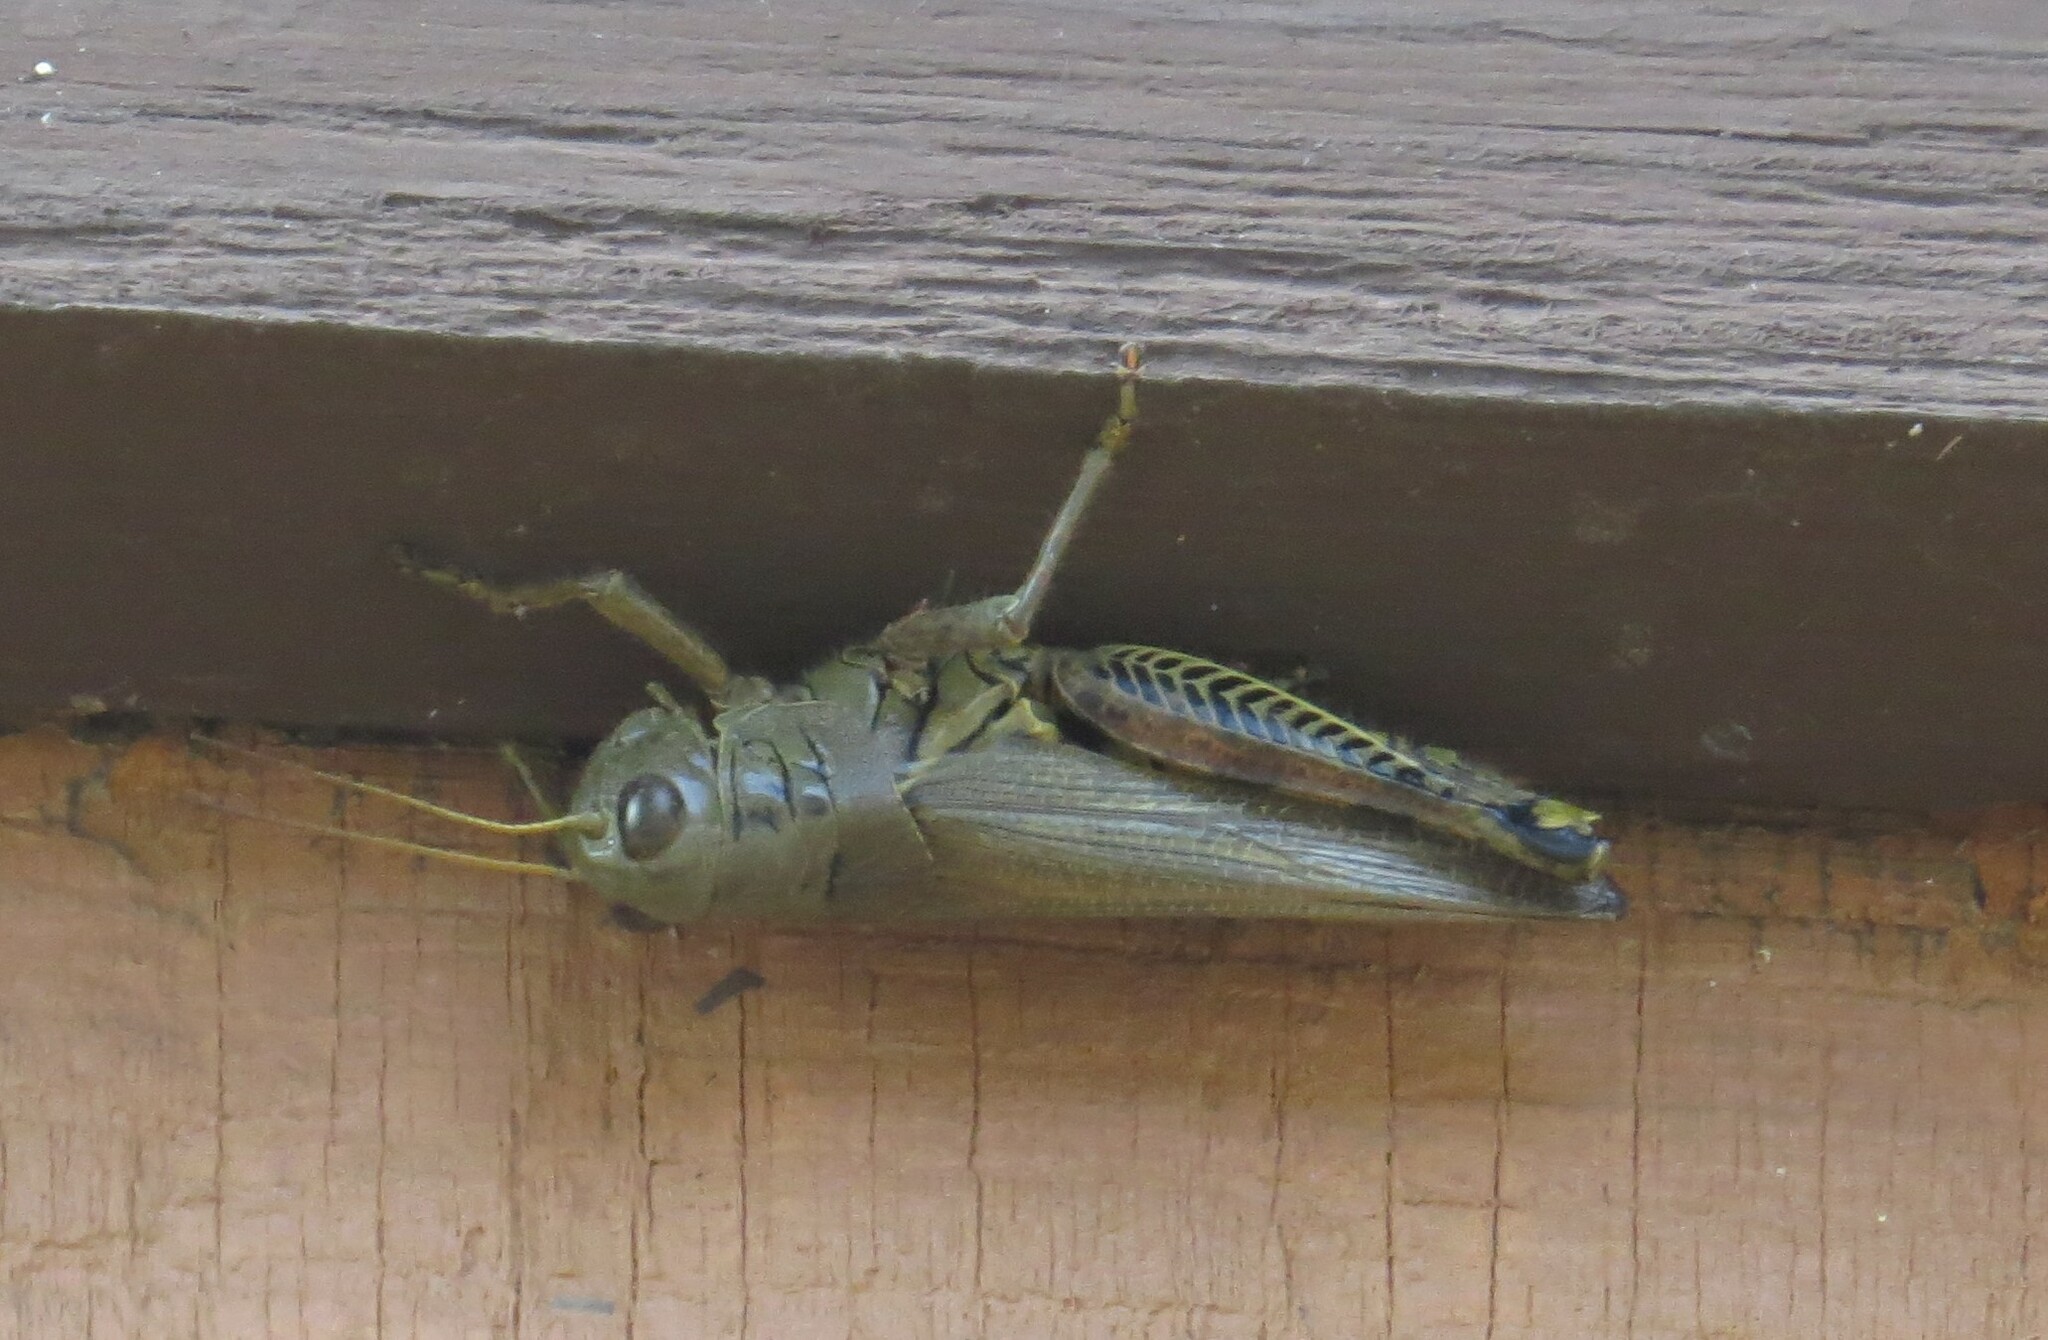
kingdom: Animalia
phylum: Arthropoda
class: Insecta
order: Orthoptera
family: Acrididae
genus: Melanoplus
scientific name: Melanoplus differentialis
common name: Differential grasshopper
